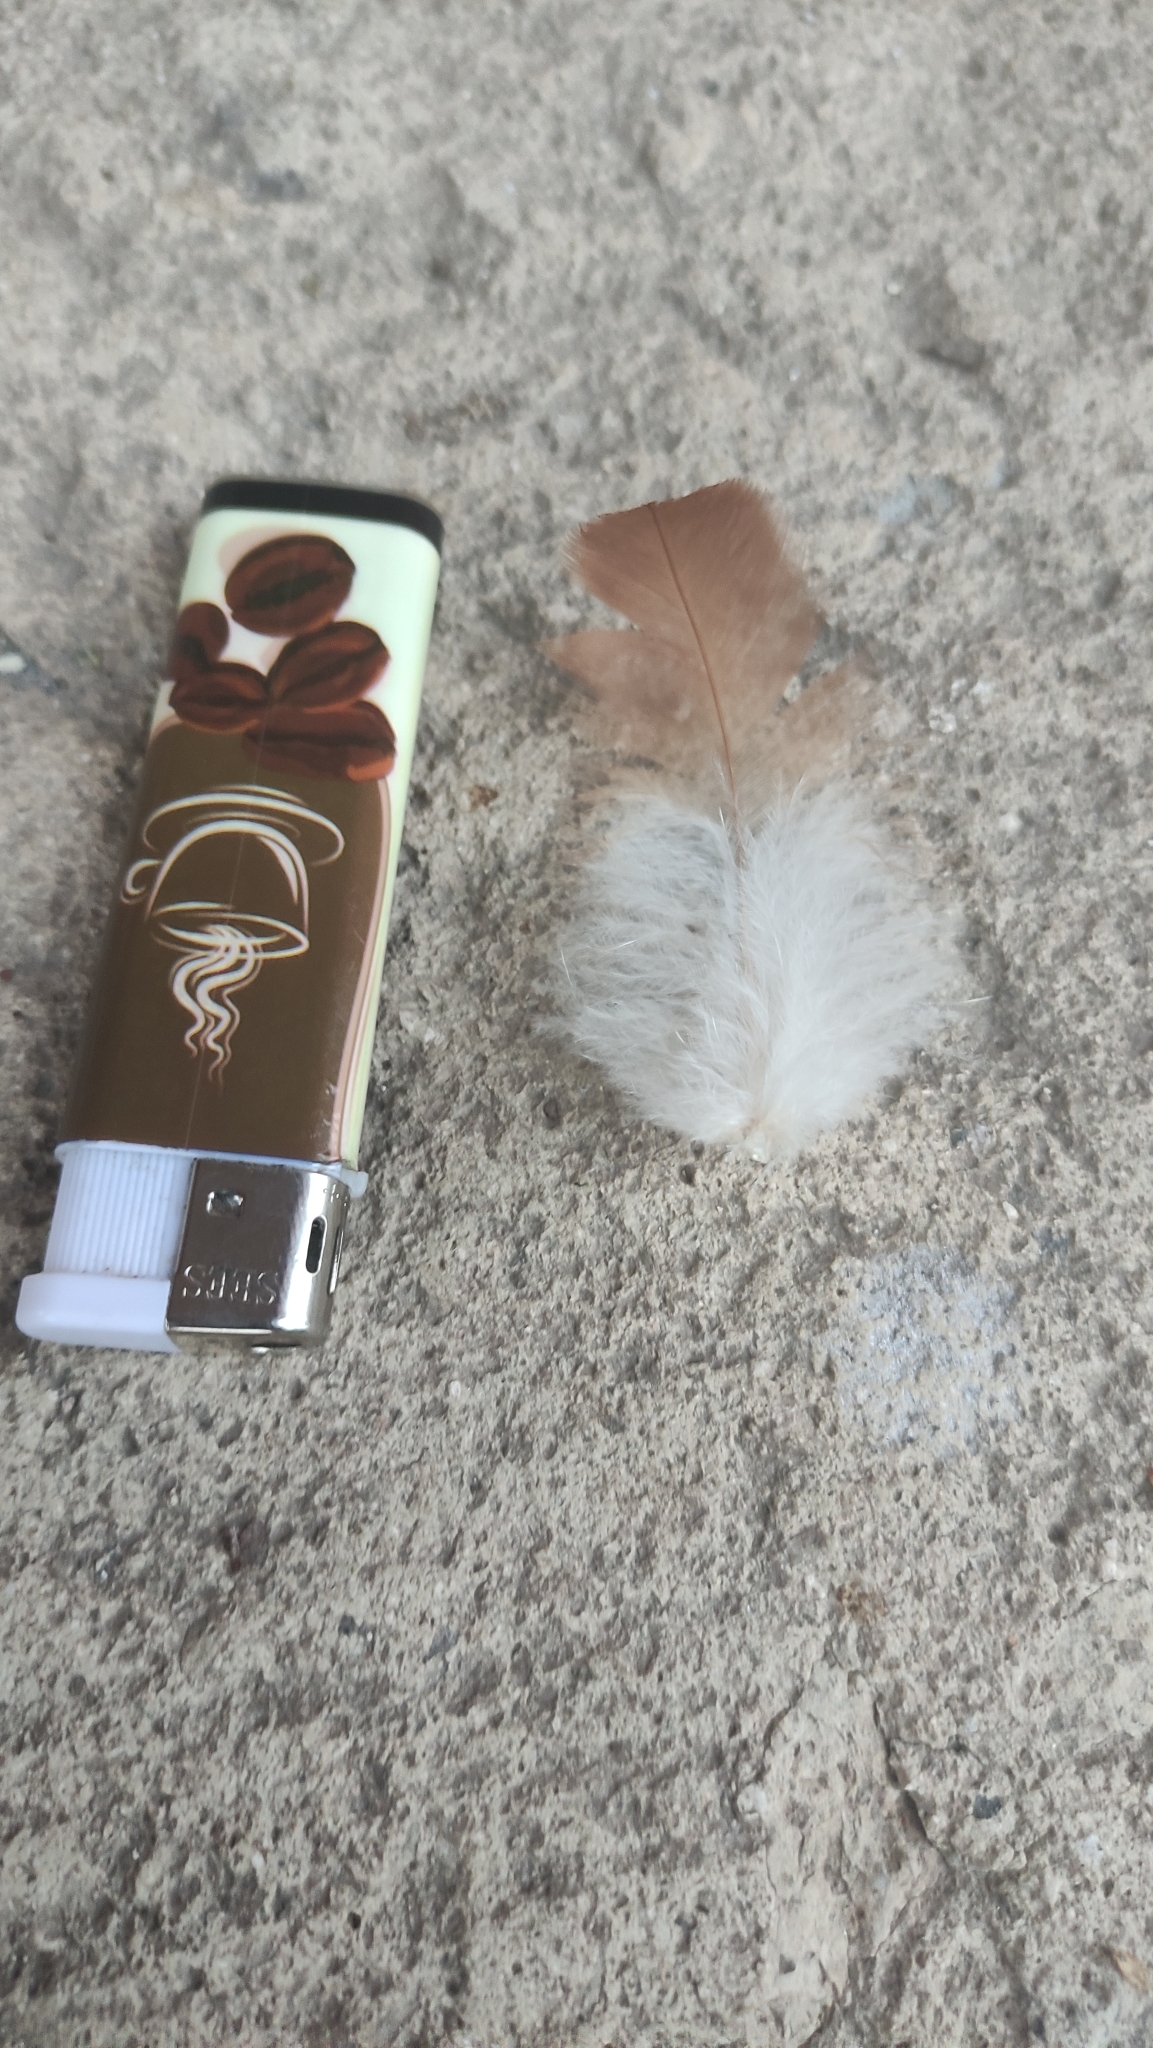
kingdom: Animalia
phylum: Chordata
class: Aves
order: Galliformes
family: Phasianidae
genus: Gallus
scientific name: Gallus gallus
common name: Red junglefowl
